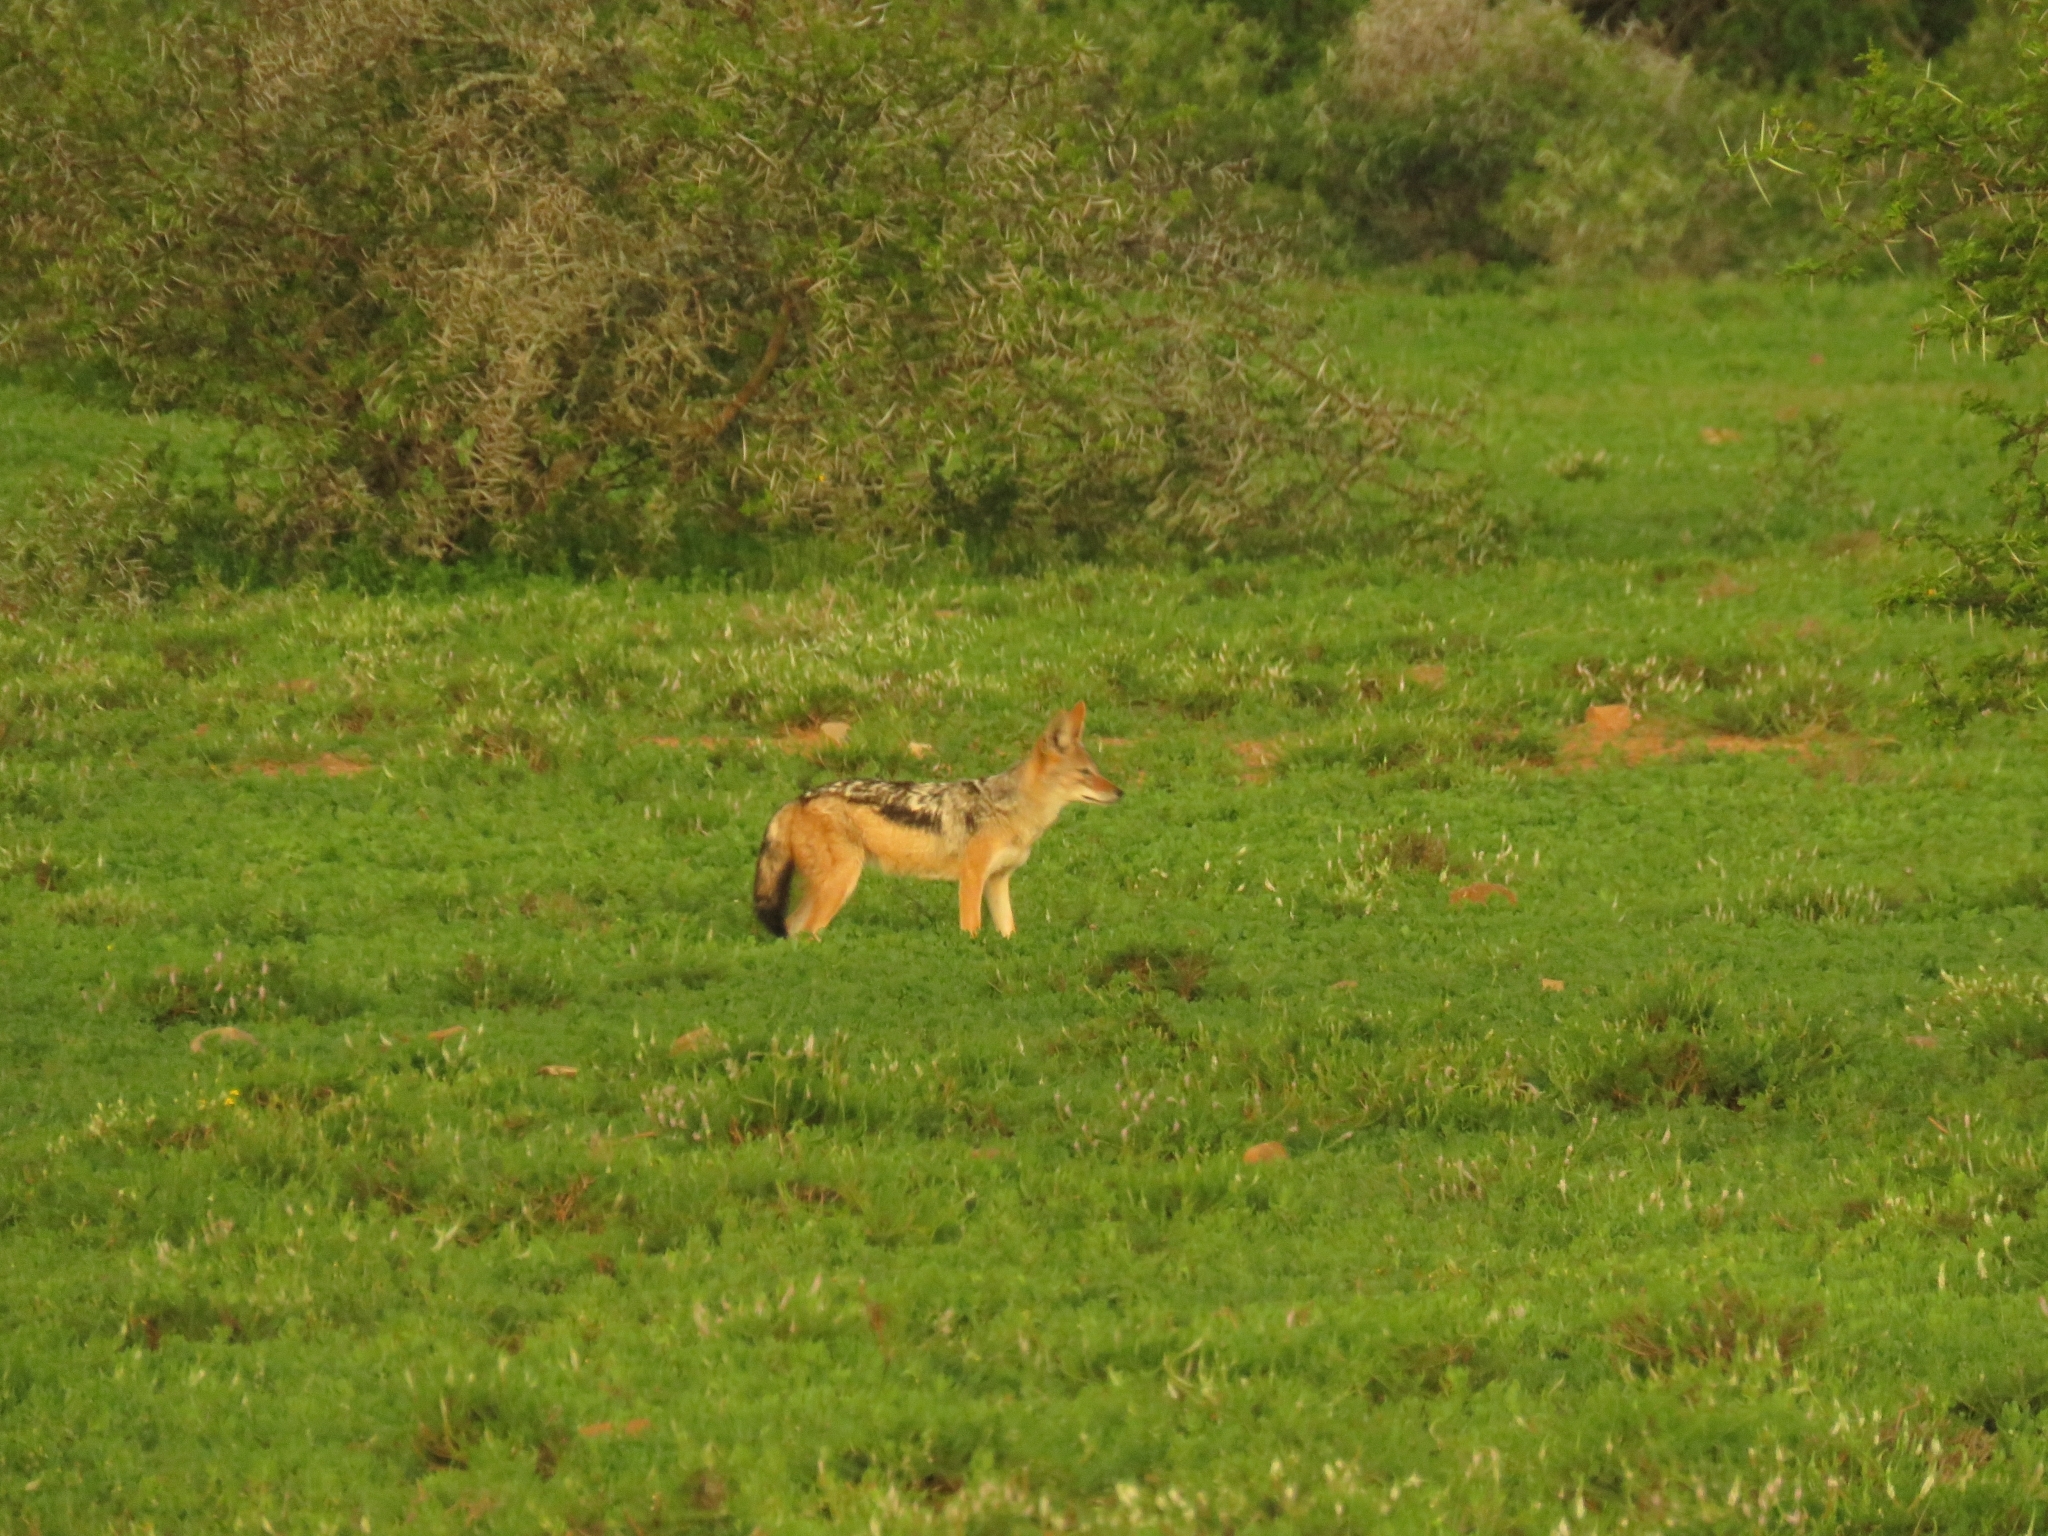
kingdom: Animalia
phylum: Chordata
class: Mammalia
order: Carnivora
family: Canidae
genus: Lupulella
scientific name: Lupulella
